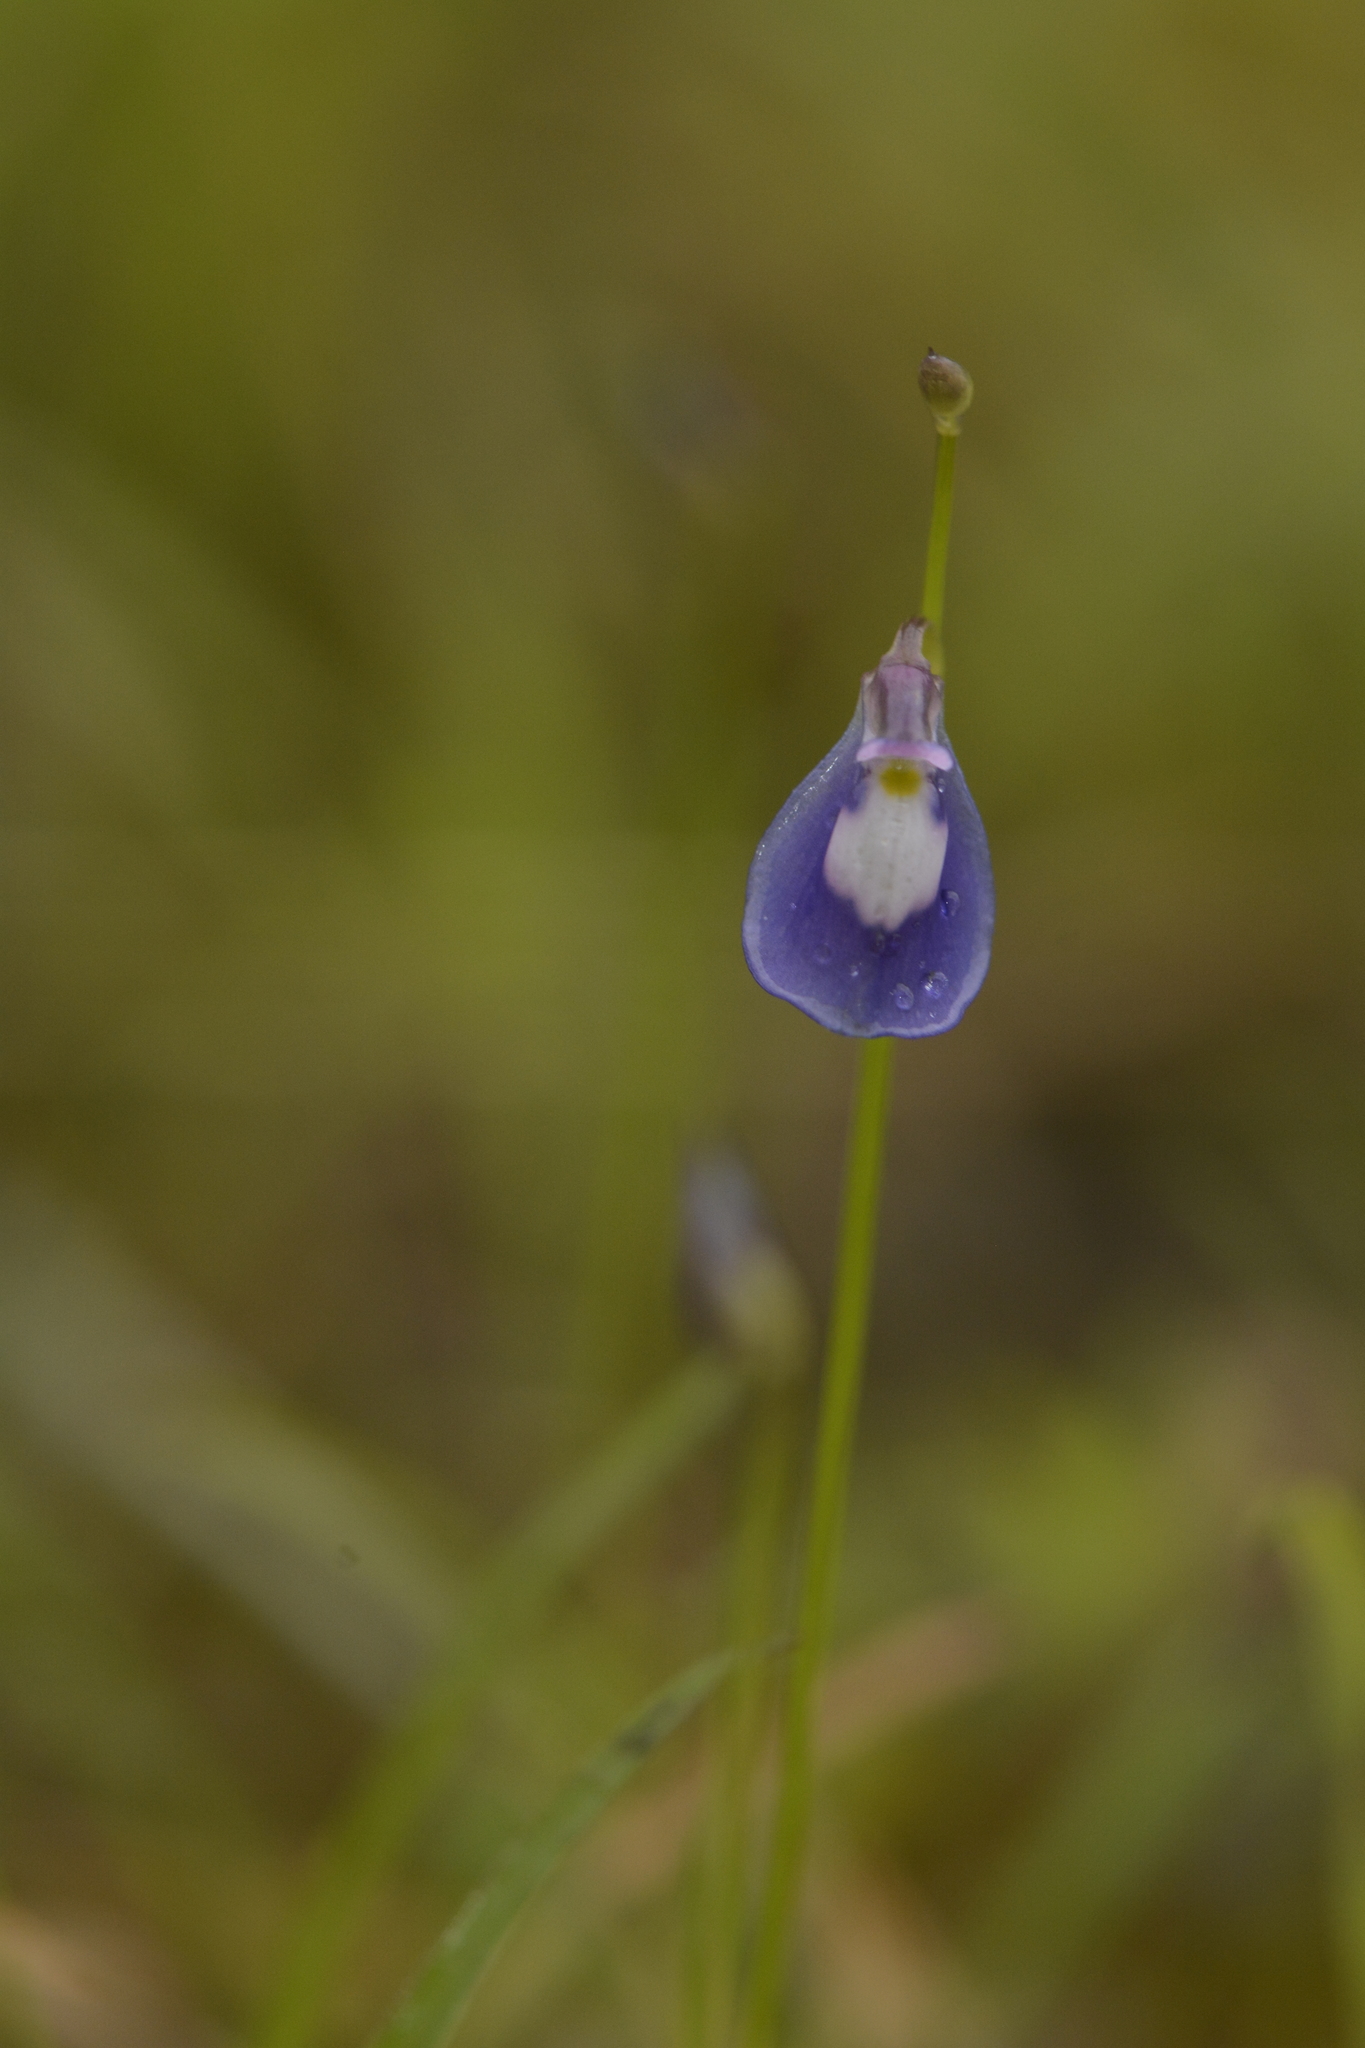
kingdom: Plantae
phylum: Tracheophyta
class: Magnoliopsida
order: Lamiales
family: Lentibulariaceae
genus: Utricularia
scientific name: Utricularia arcuata
